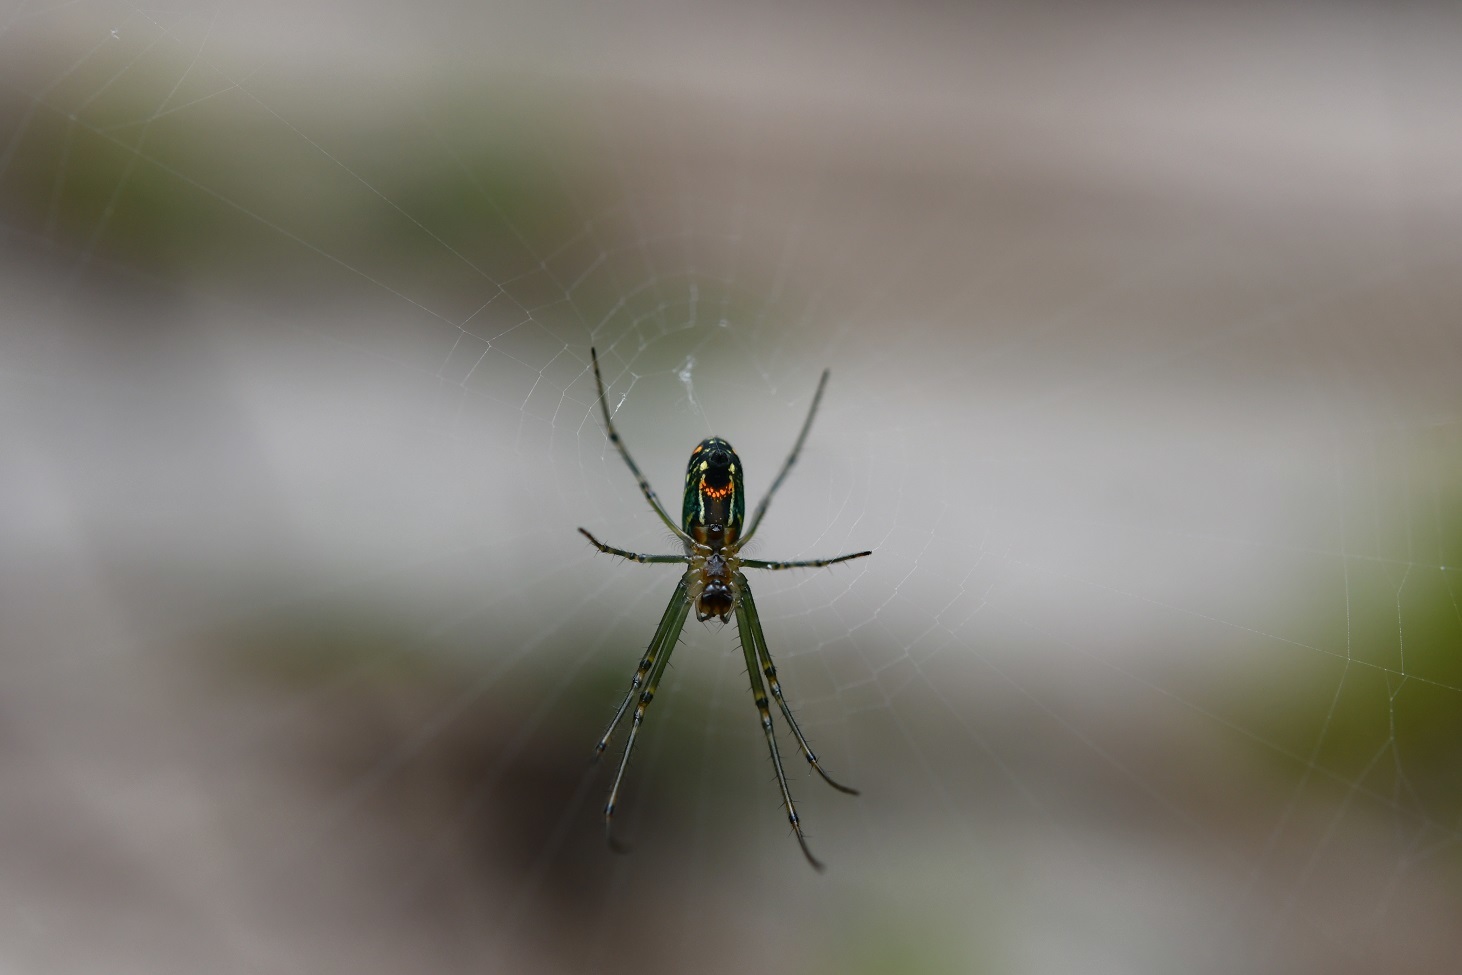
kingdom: Animalia
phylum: Arthropoda
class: Arachnida
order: Araneae
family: Tetragnathidae
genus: Leucauge
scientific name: Leucauge mariana
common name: Longjawed orb weavers
